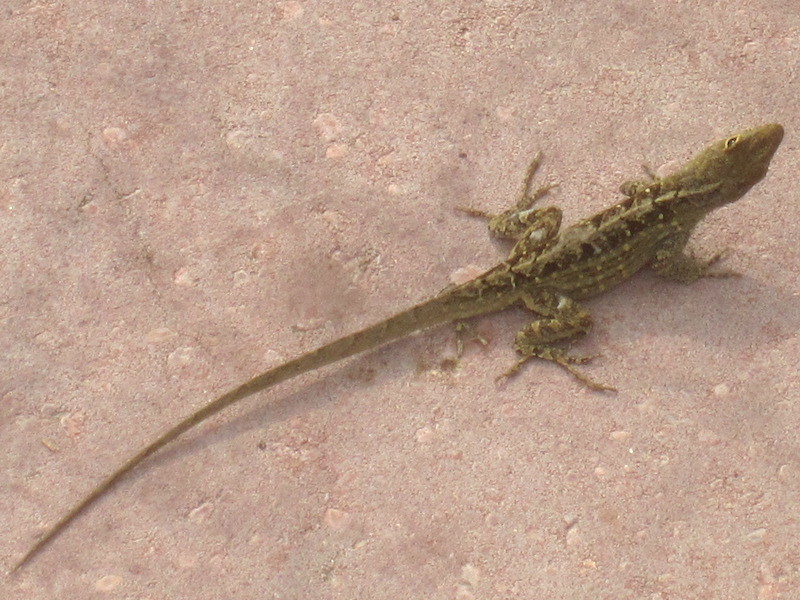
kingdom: Animalia
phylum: Chordata
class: Squamata
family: Dactyloidae
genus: Anolis
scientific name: Anolis sagrei
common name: Brown anole
